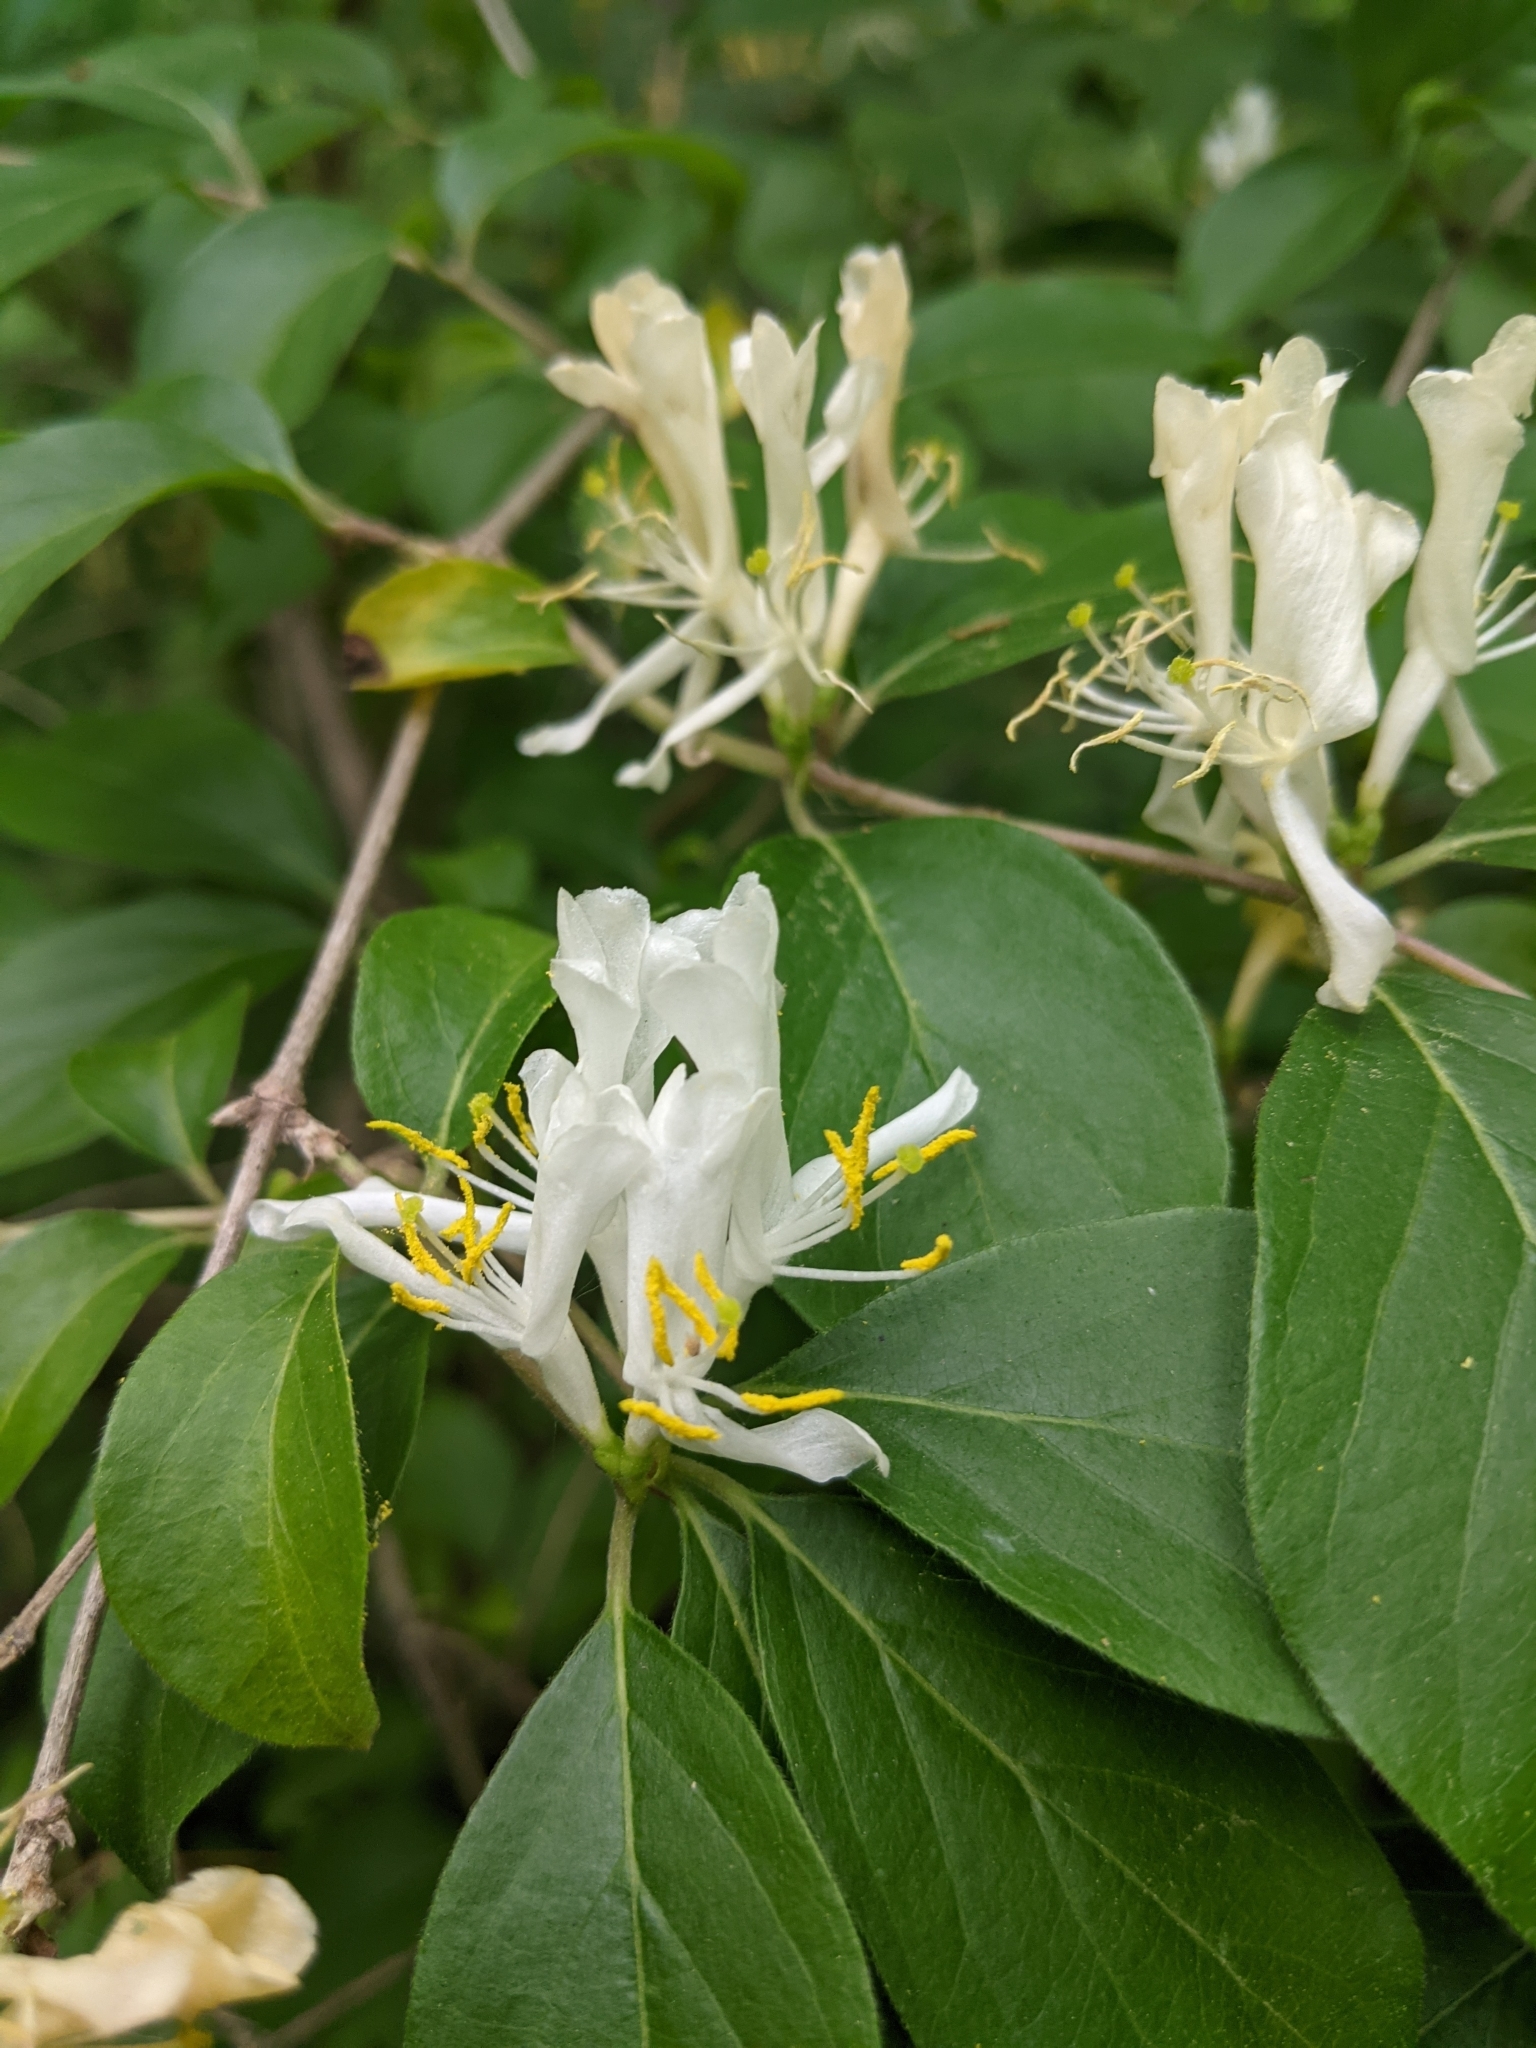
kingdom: Plantae
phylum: Tracheophyta
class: Magnoliopsida
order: Dipsacales
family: Caprifoliaceae
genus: Lonicera
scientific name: Lonicera maackii
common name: Amur honeysuckle
